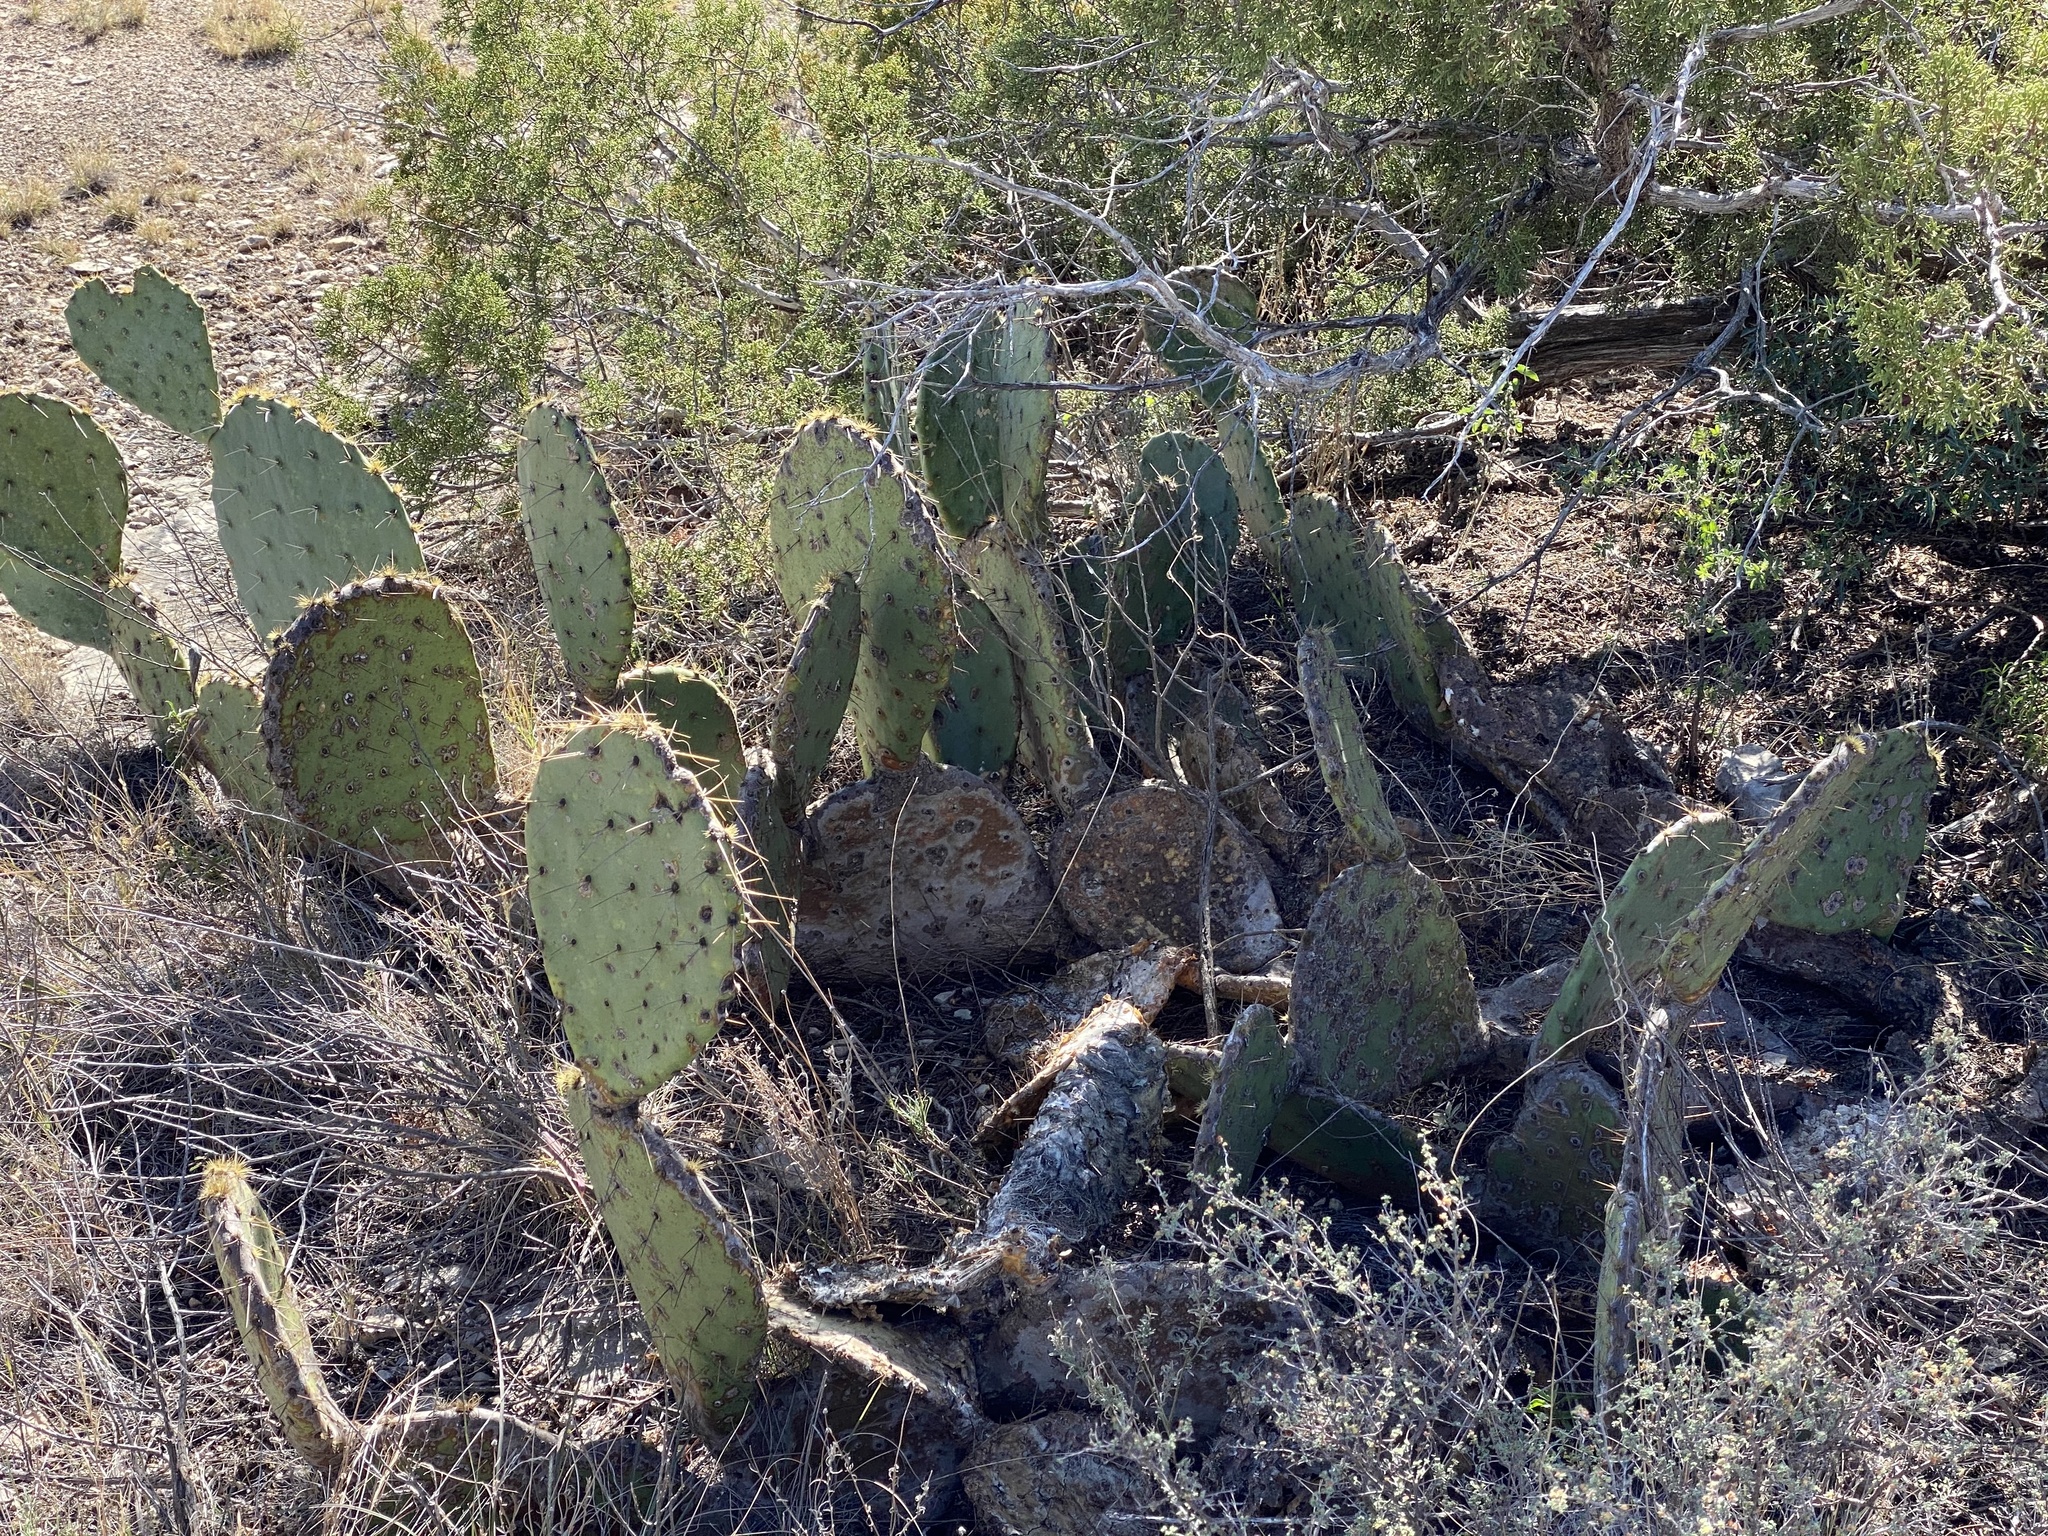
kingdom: Plantae
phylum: Tracheophyta
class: Magnoliopsida
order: Caryophyllales
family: Cactaceae
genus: Opuntia
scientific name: Opuntia engelmannii
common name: Cactus-apple
